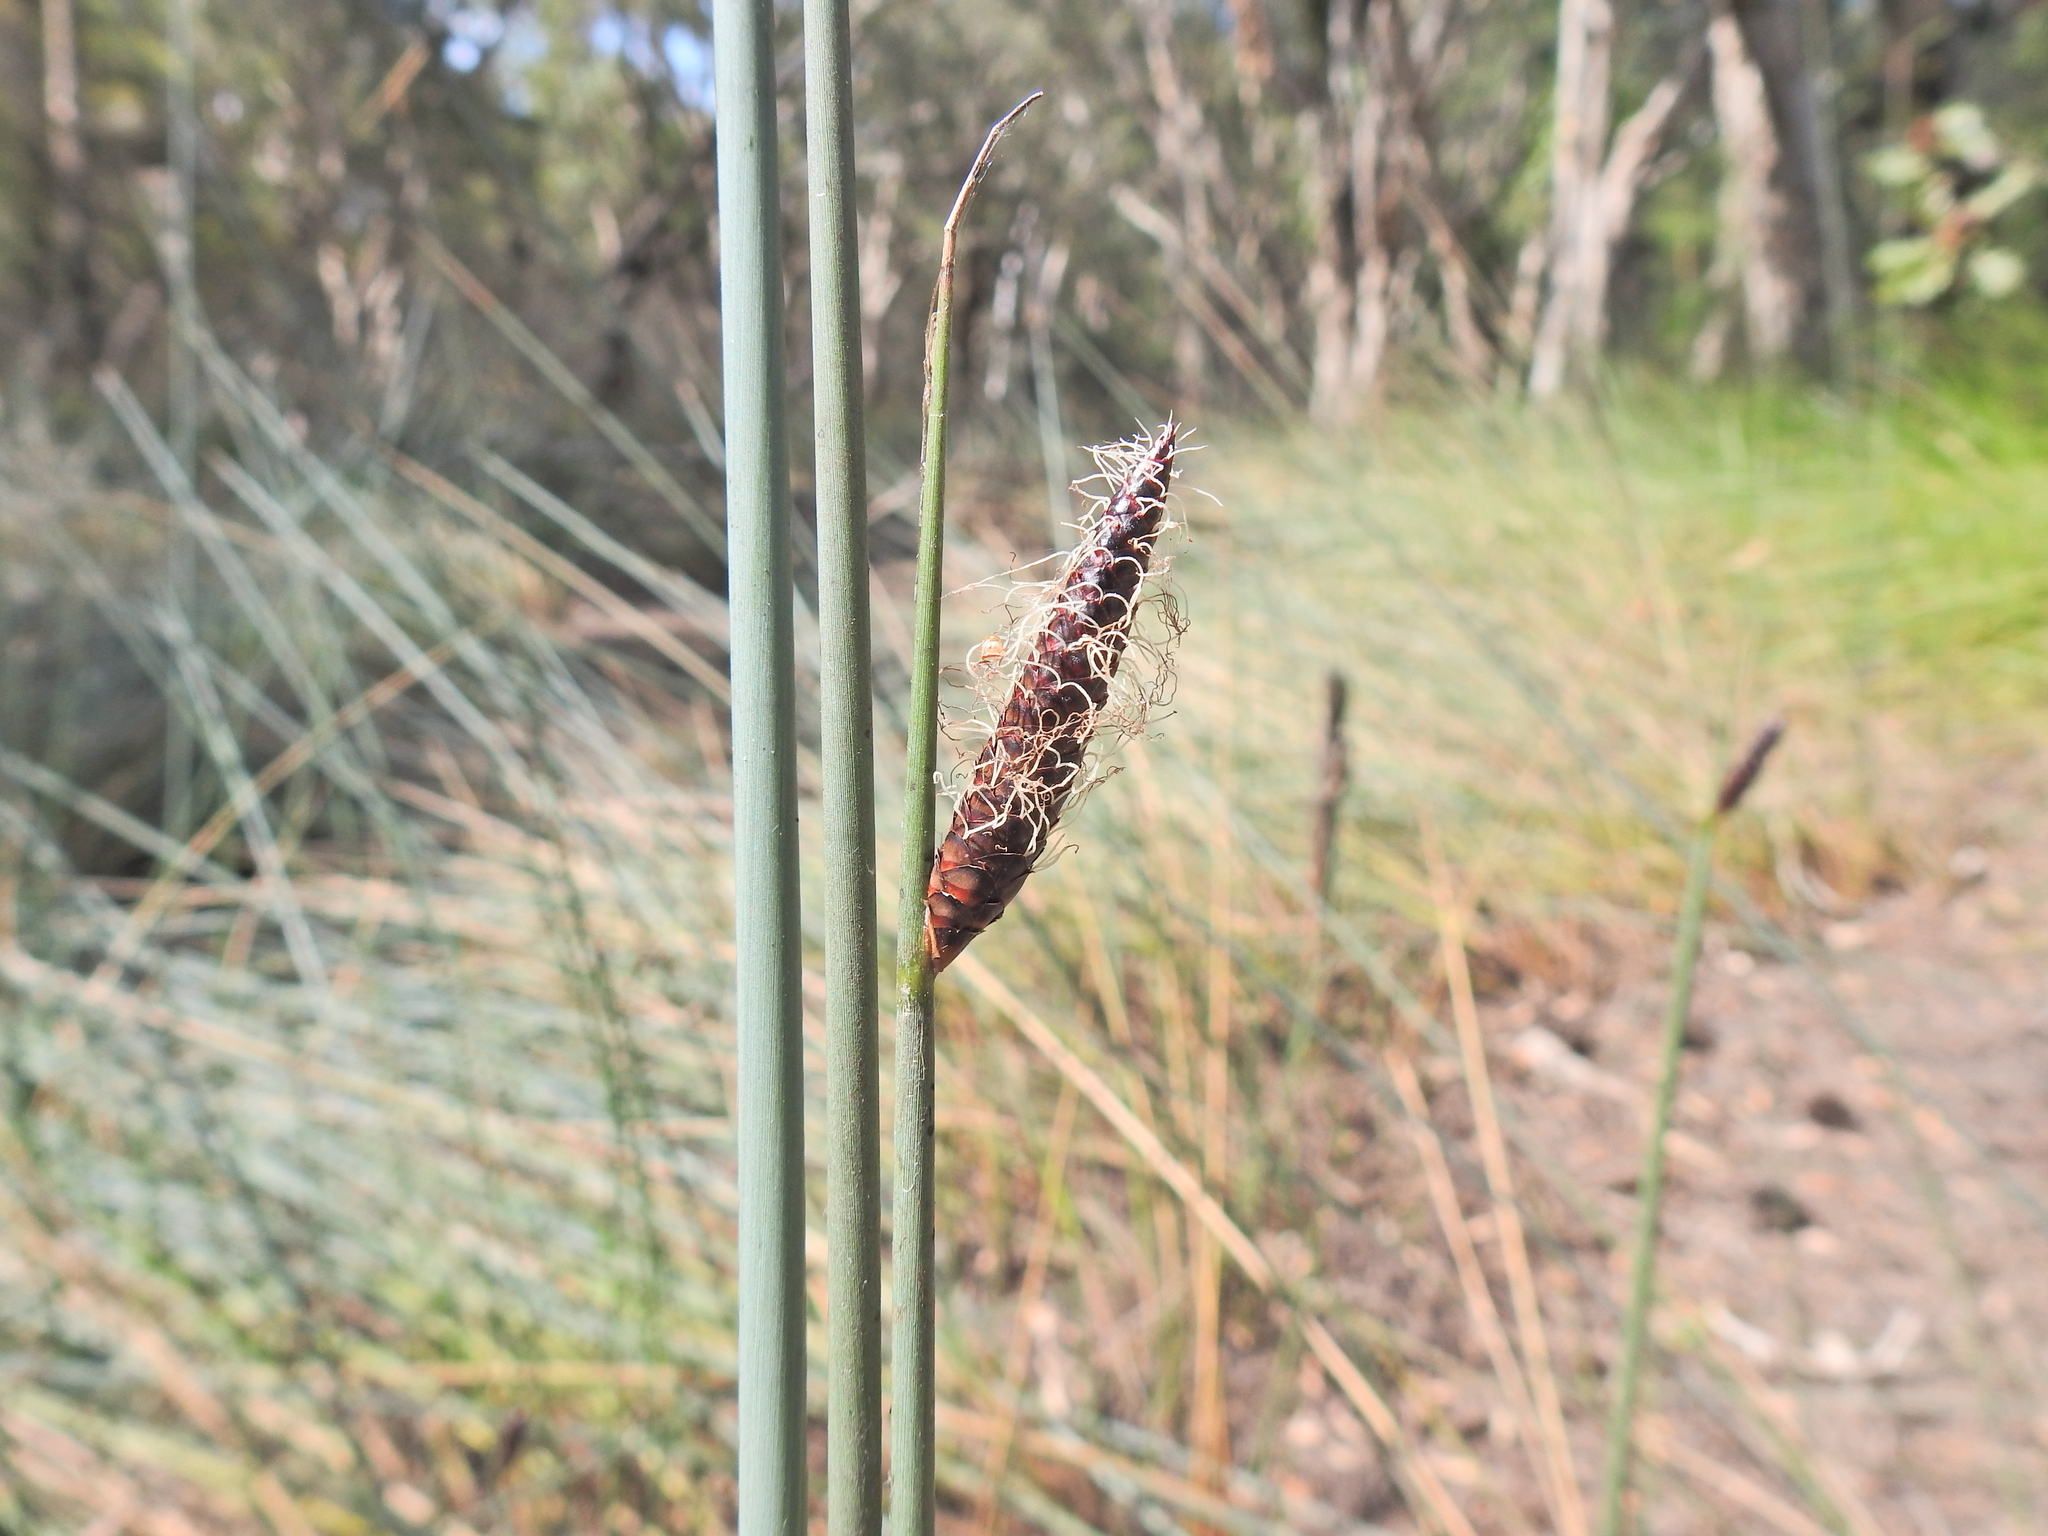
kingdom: Plantae
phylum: Tracheophyta
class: Liliopsida
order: Poales
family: Cyperaceae
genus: Lepironia
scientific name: Lepironia articulata
